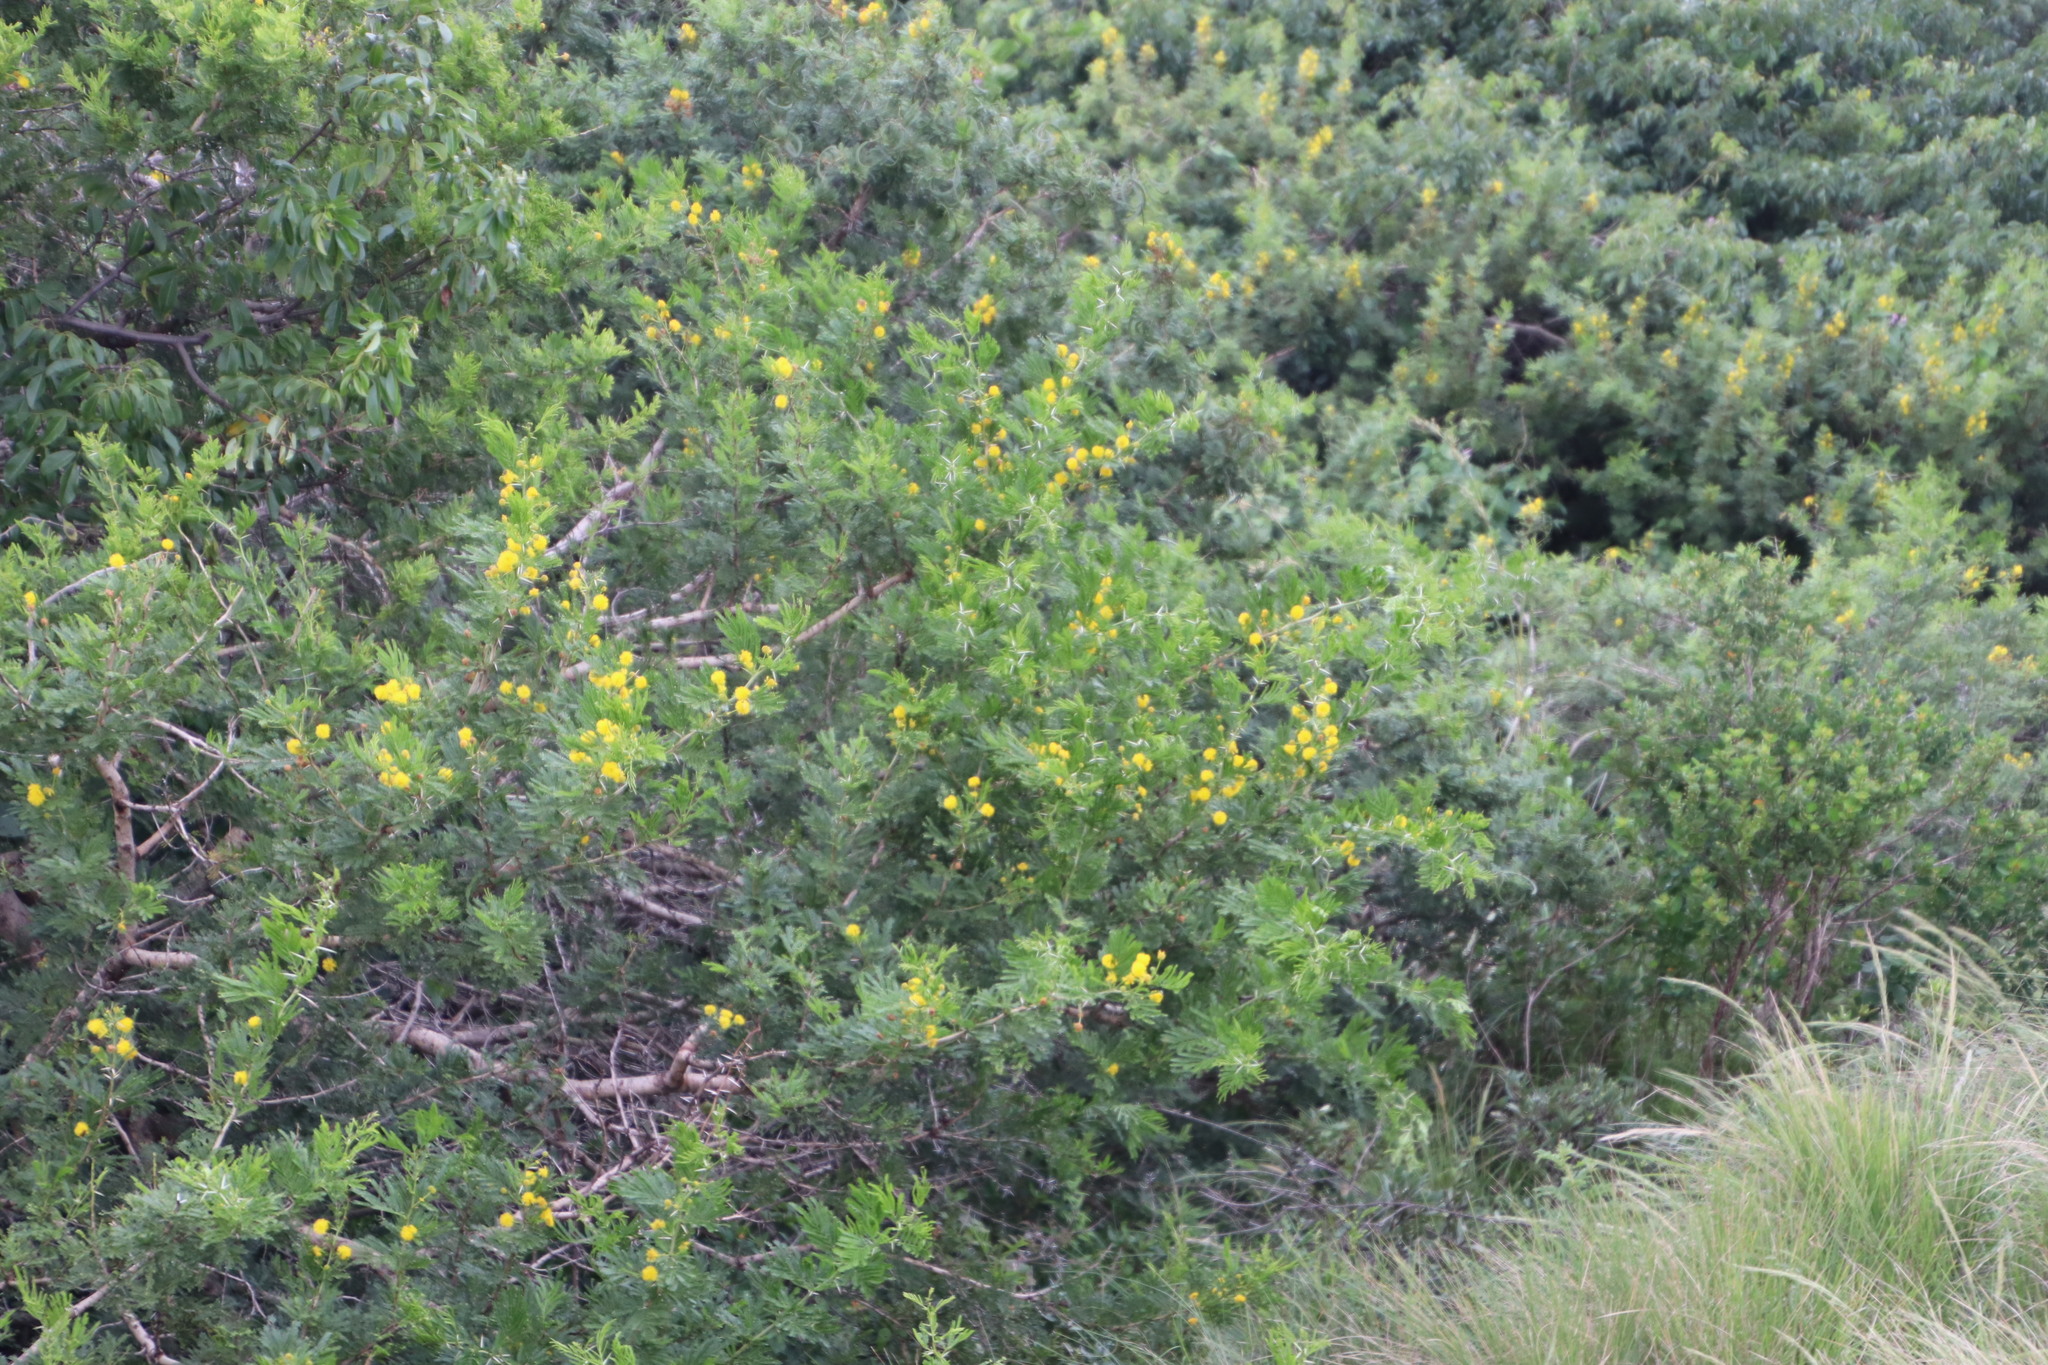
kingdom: Plantae
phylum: Tracheophyta
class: Magnoliopsida
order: Fabales
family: Fabaceae
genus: Vachellia
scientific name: Vachellia karroo
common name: Sweet thorn
